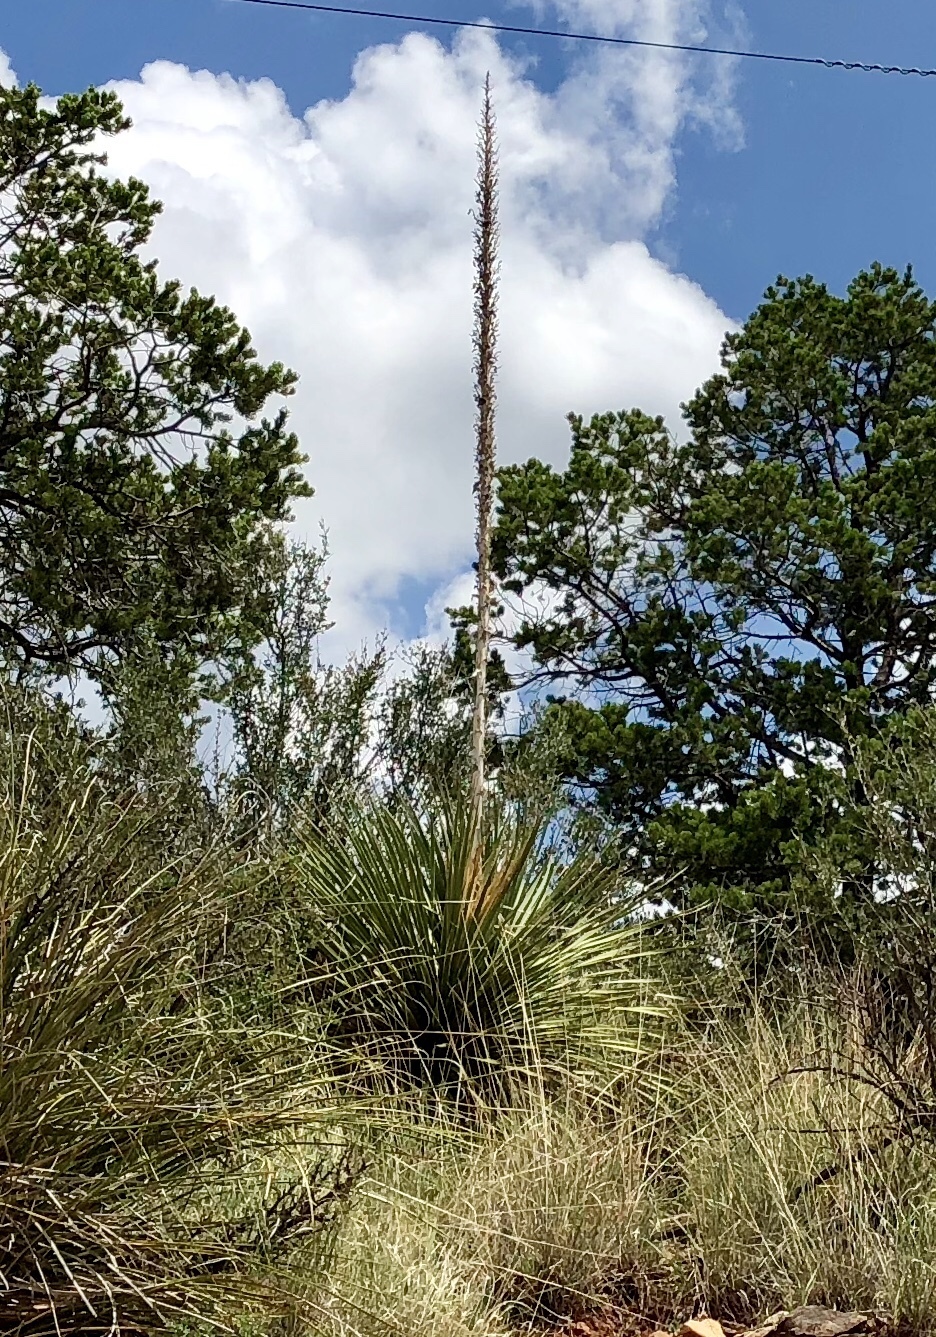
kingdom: Plantae
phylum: Tracheophyta
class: Liliopsida
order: Asparagales
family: Asparagaceae
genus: Dasylirion
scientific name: Dasylirion wheeleri
